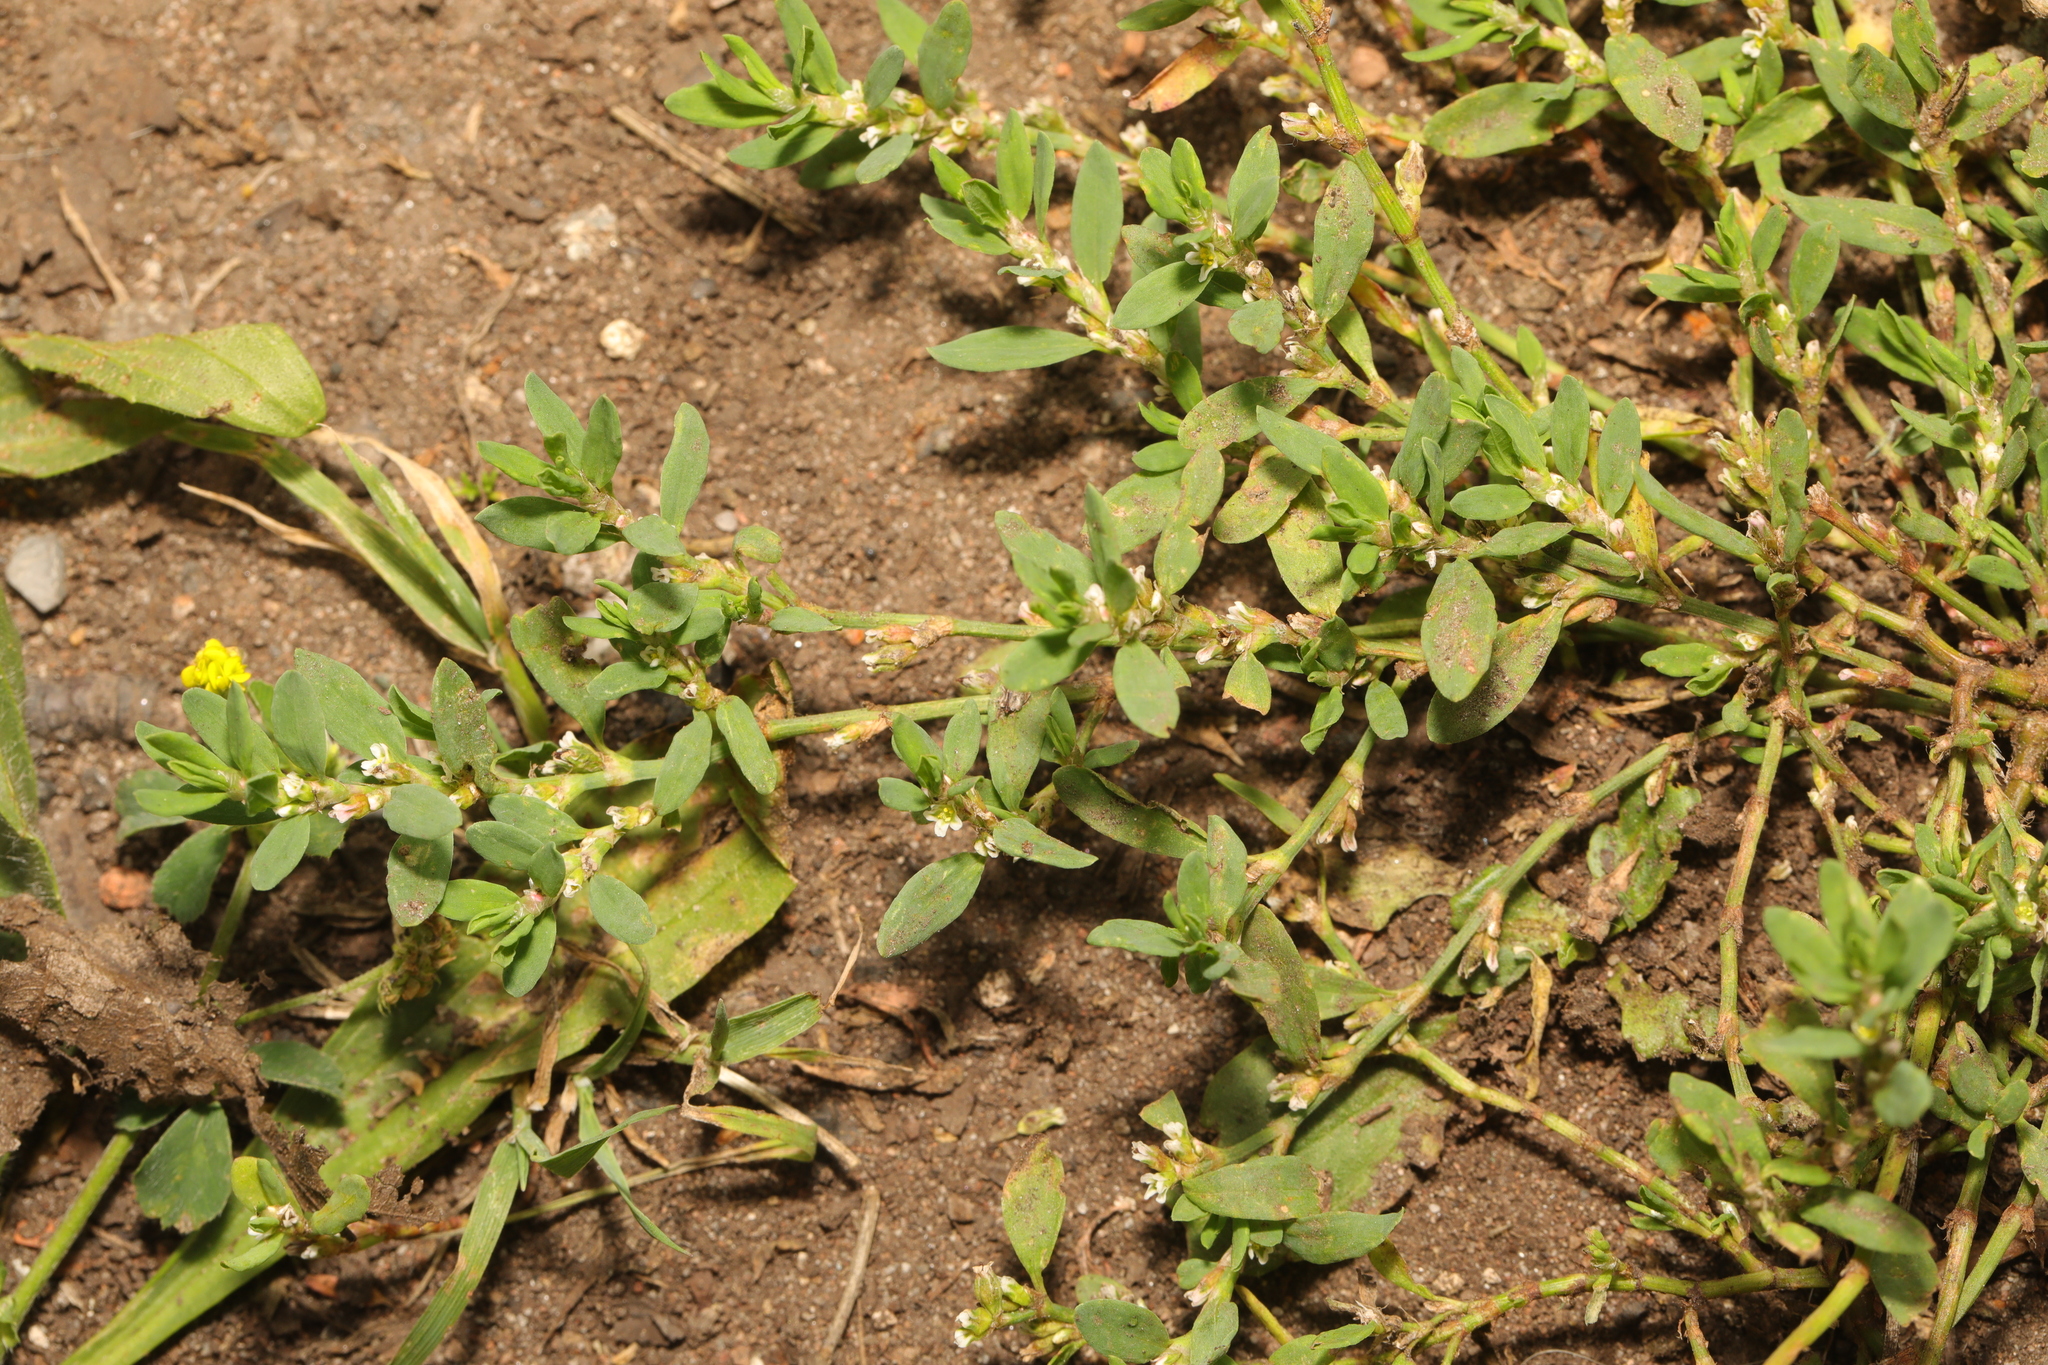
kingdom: Plantae
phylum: Tracheophyta
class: Magnoliopsida
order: Caryophyllales
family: Polygonaceae
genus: Polygonum
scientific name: Polygonum aviculare
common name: Prostrate knotweed
